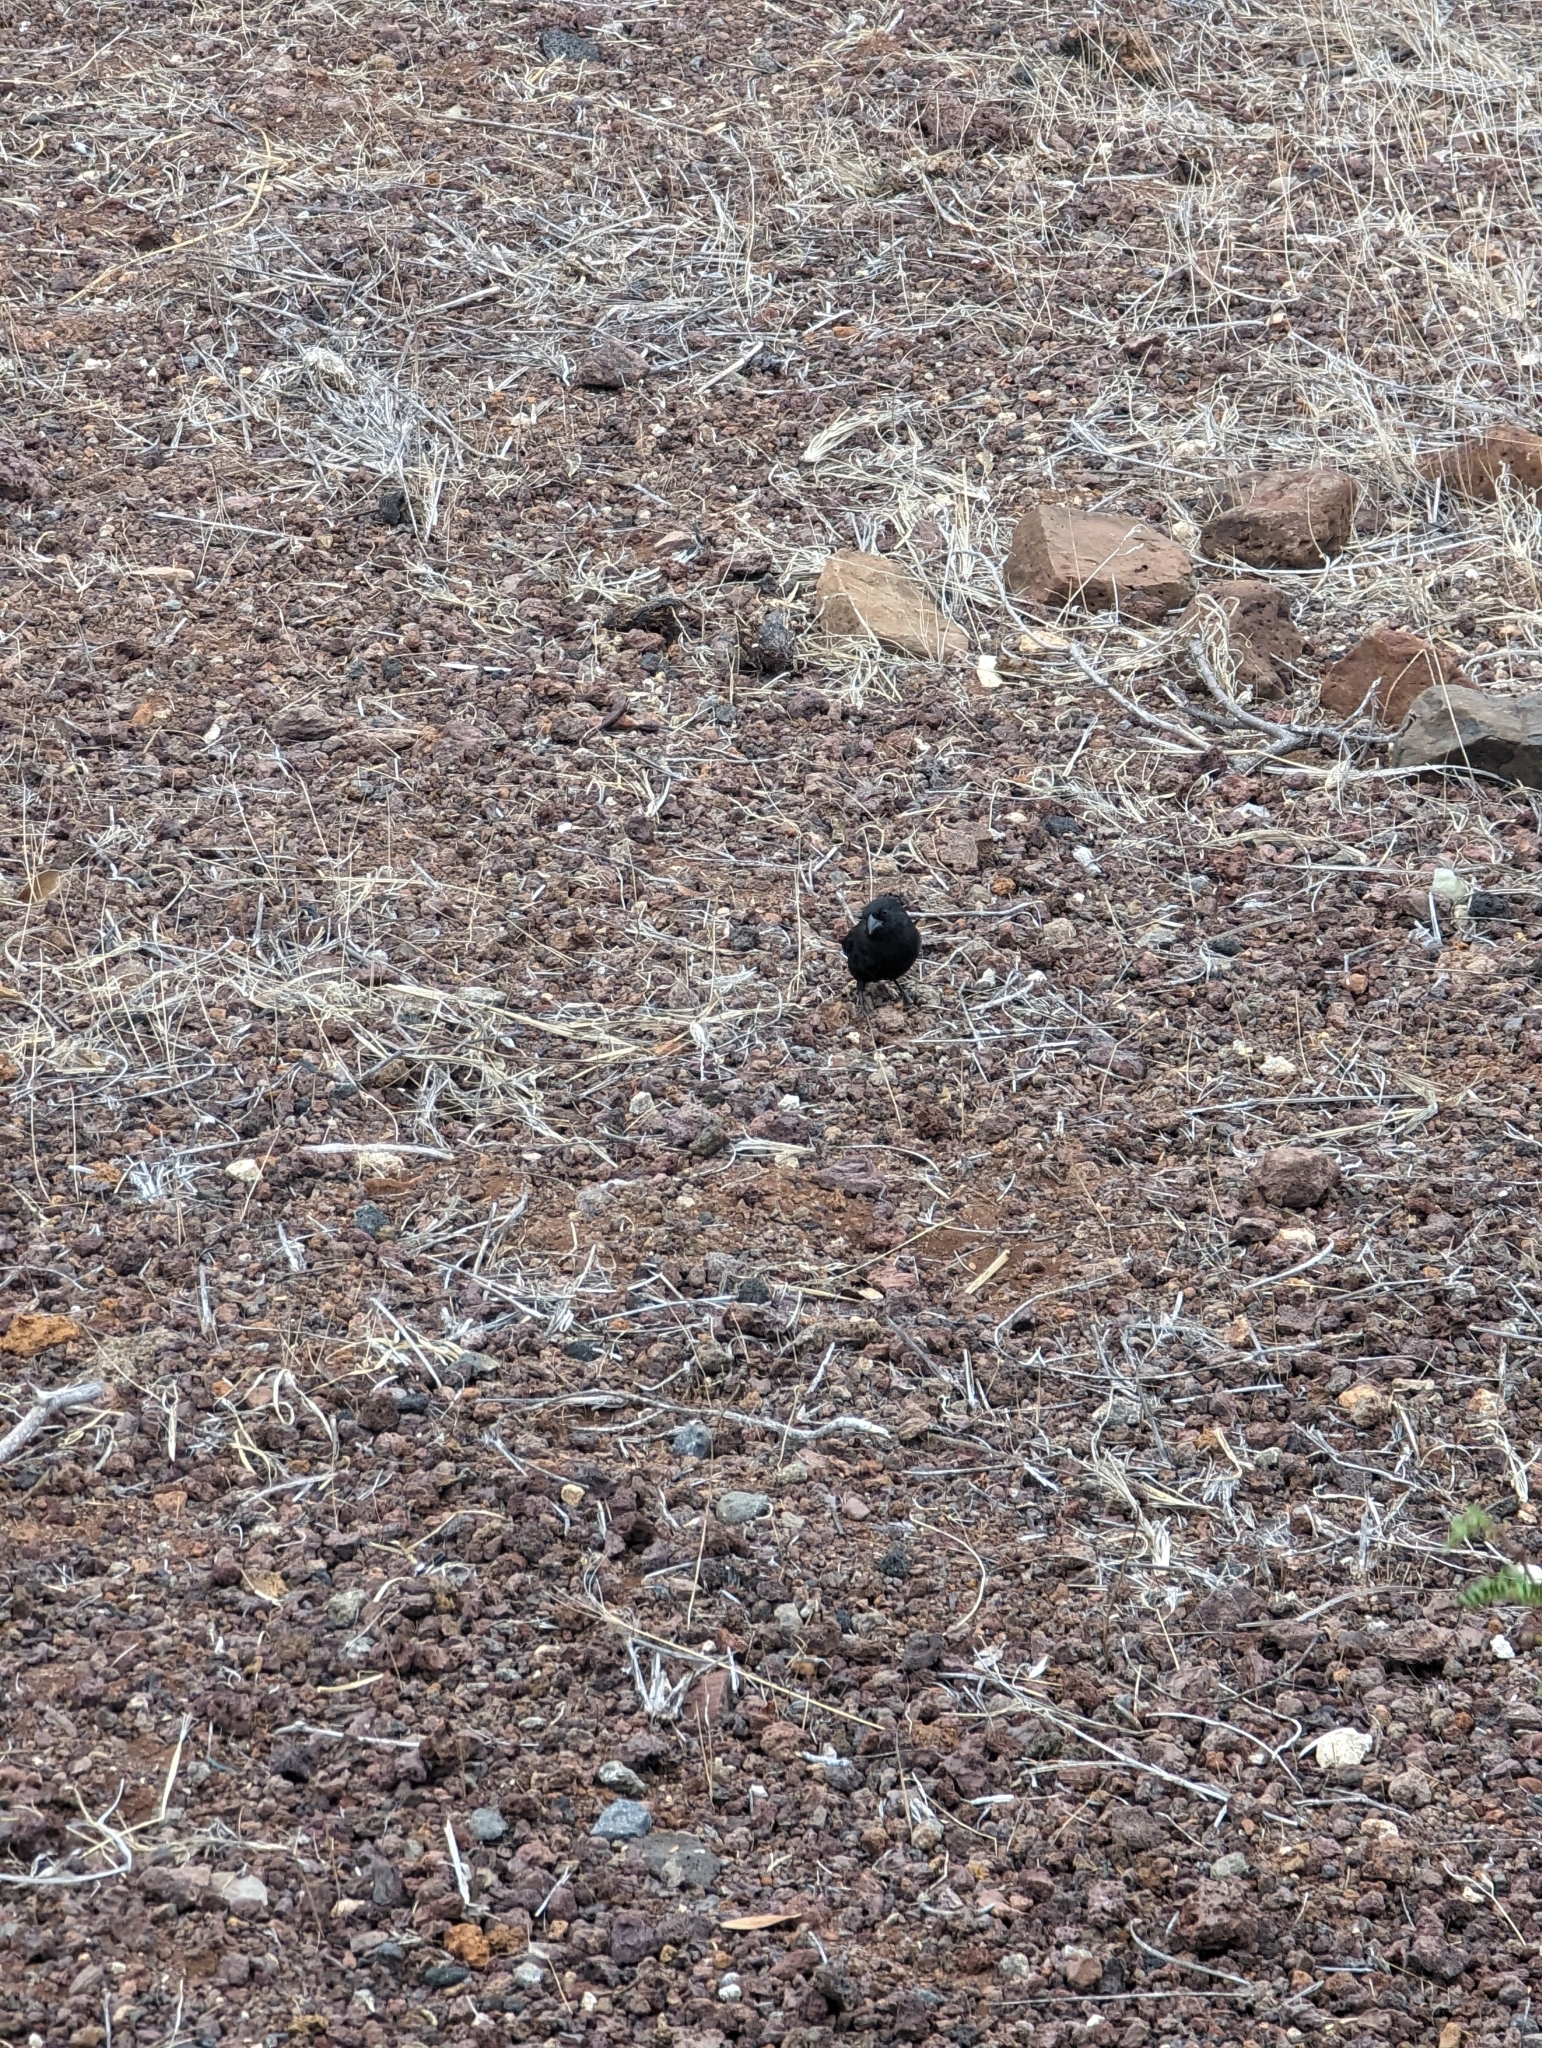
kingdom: Animalia
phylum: Chordata
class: Aves
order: Passeriformes
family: Thraupidae
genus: Geospiza
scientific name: Geospiza fuliginosa
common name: Small ground finch
